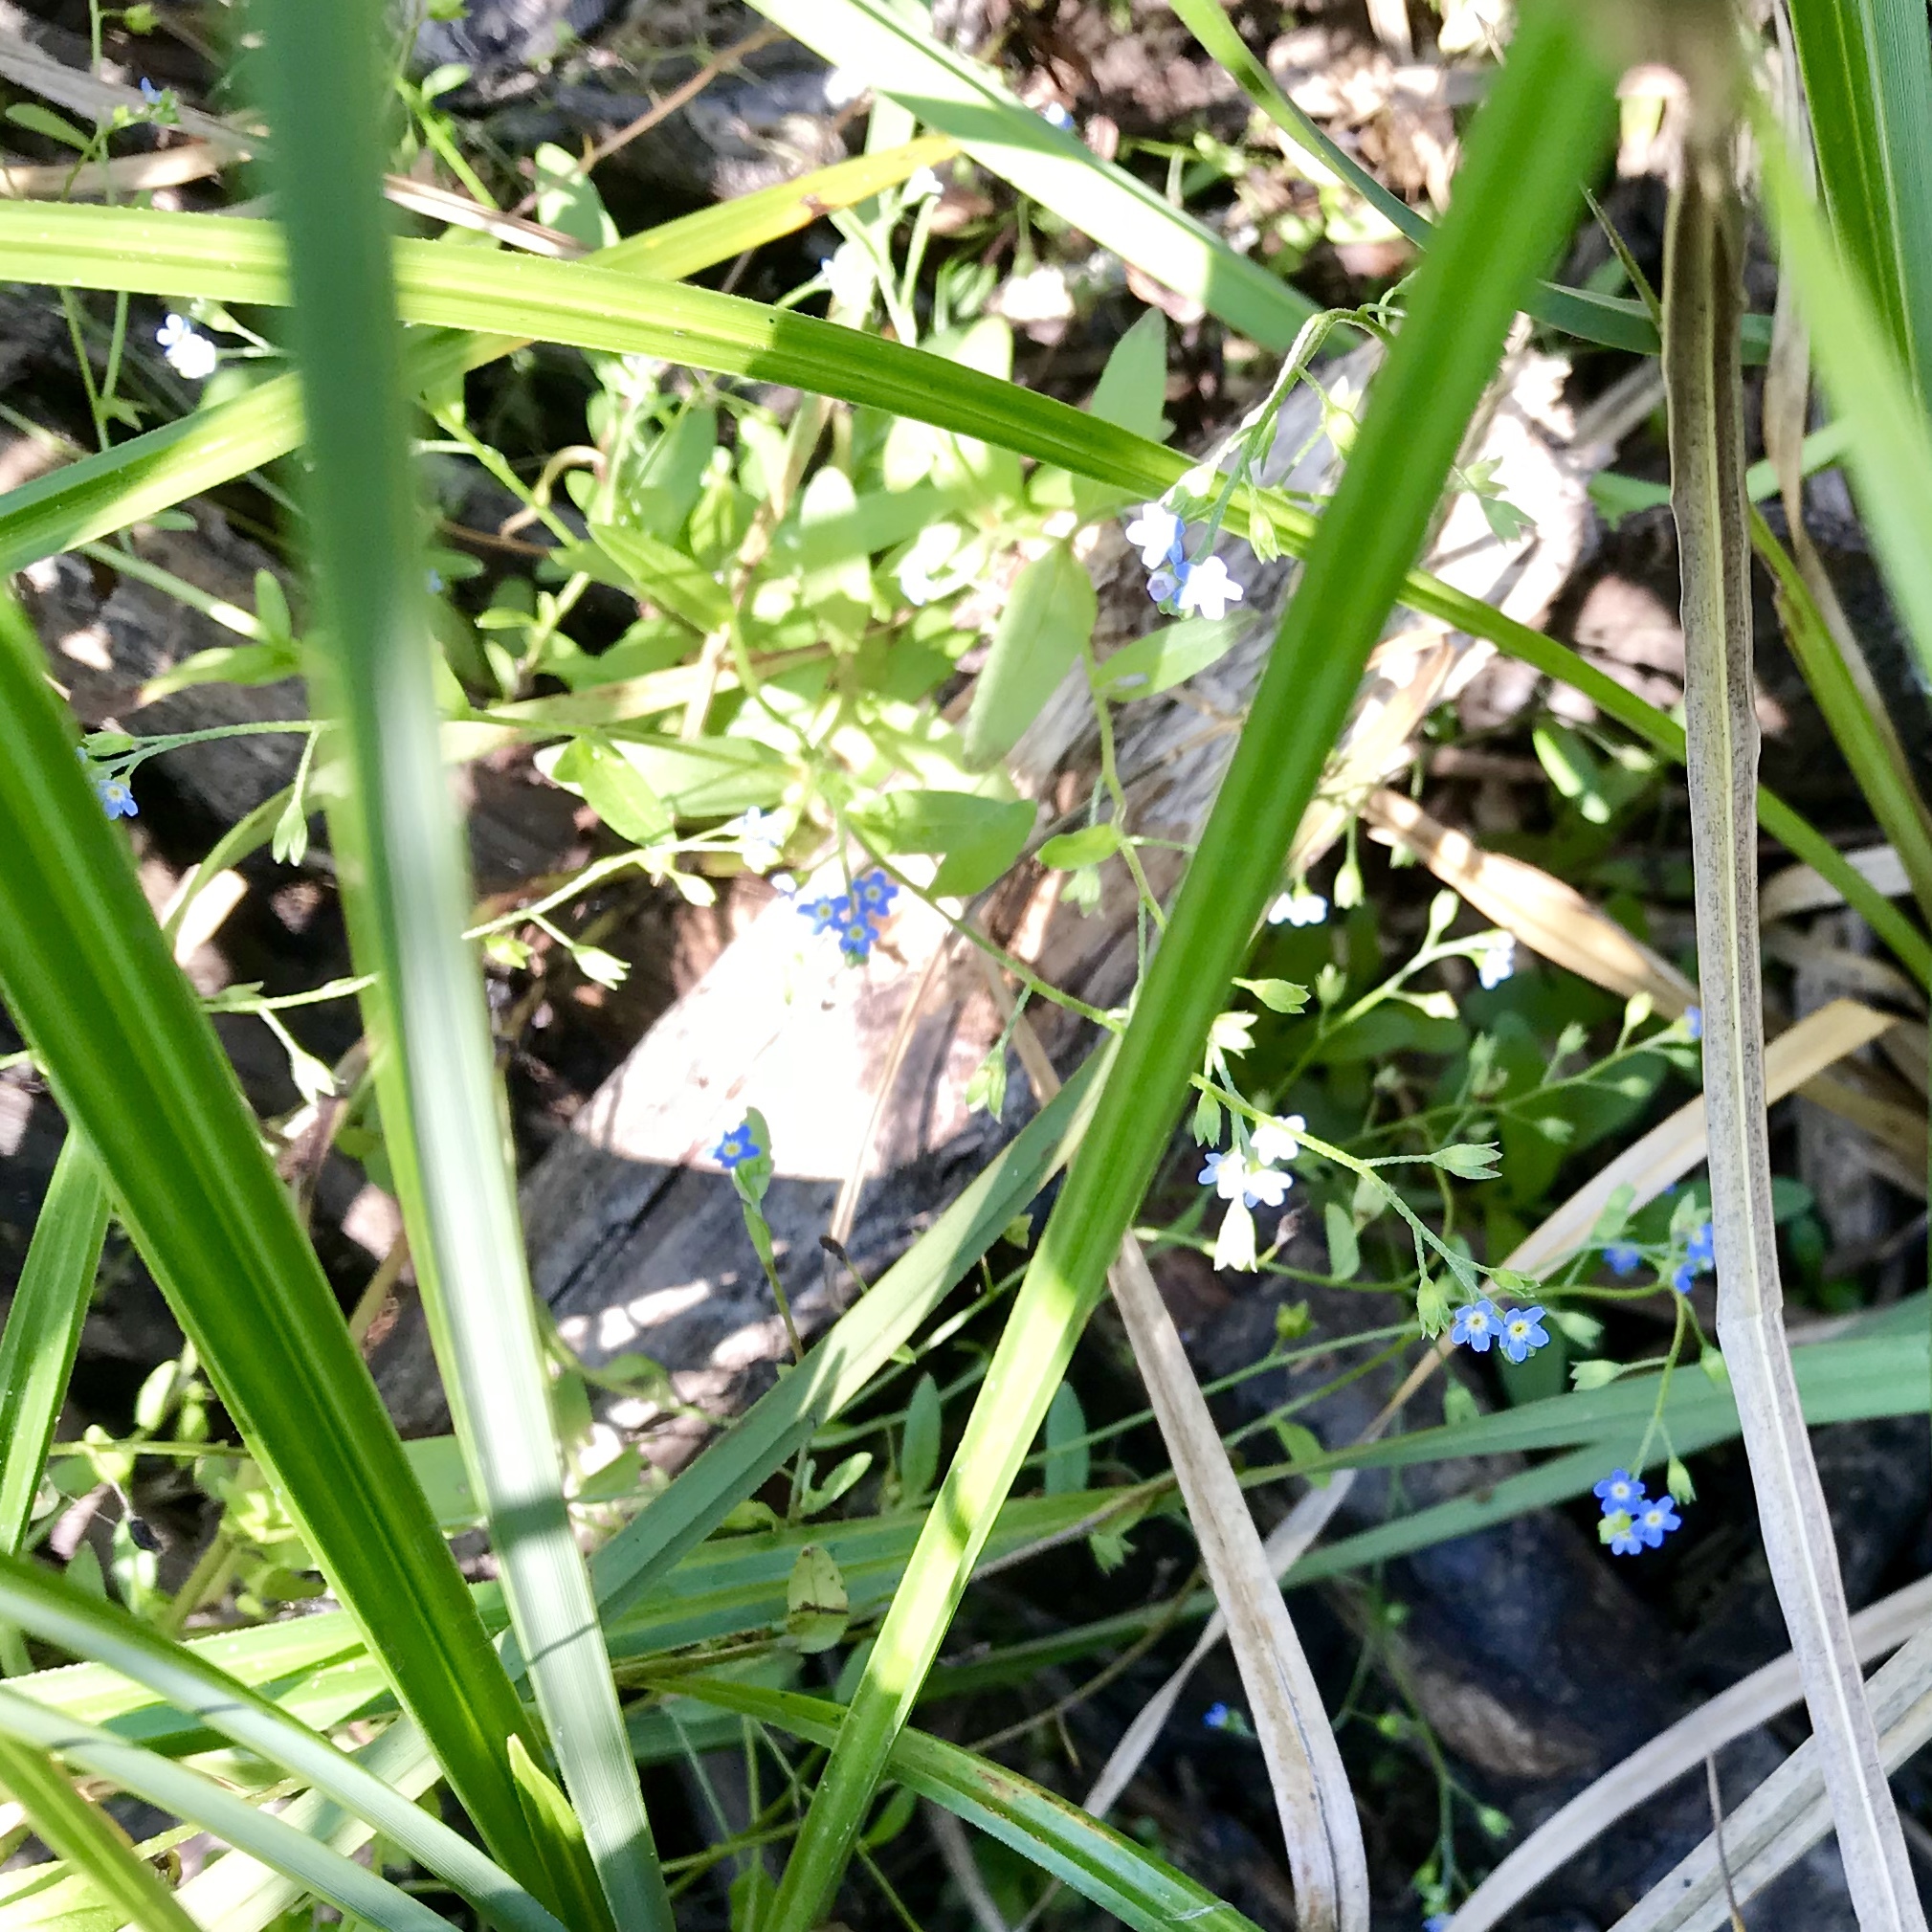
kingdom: Plantae
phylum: Tracheophyta
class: Magnoliopsida
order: Boraginales
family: Boraginaceae
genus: Myosotis
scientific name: Myosotis laxa
